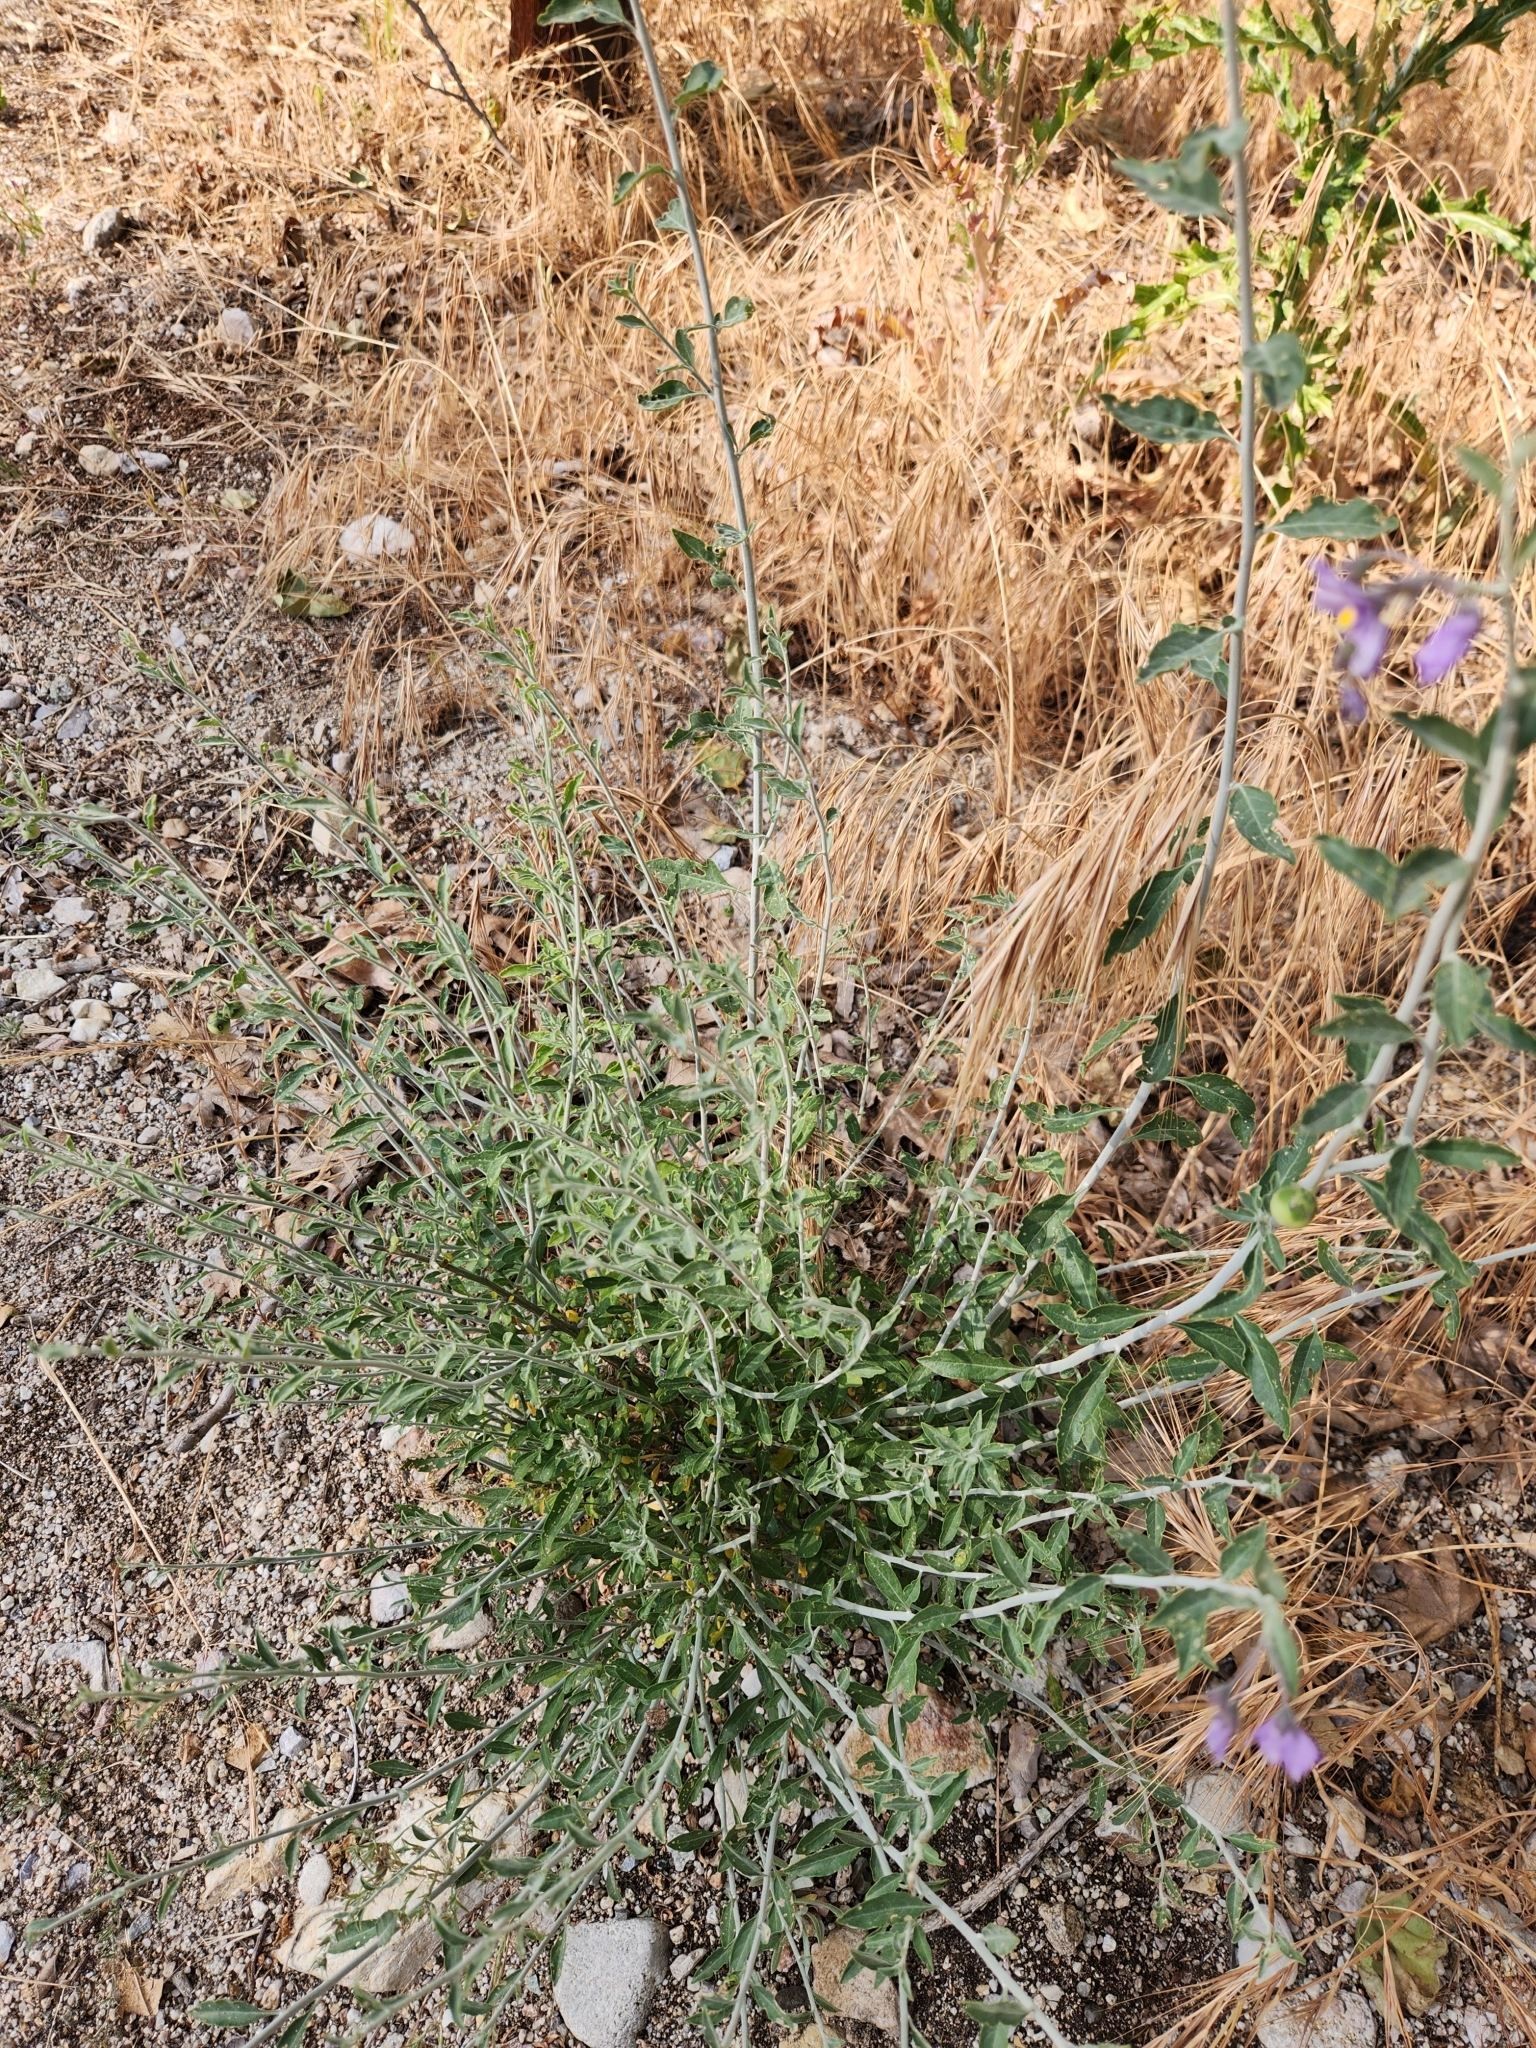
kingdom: Plantae
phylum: Tracheophyta
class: Magnoliopsida
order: Solanales
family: Solanaceae
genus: Solanum
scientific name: Solanum umbelliferum
